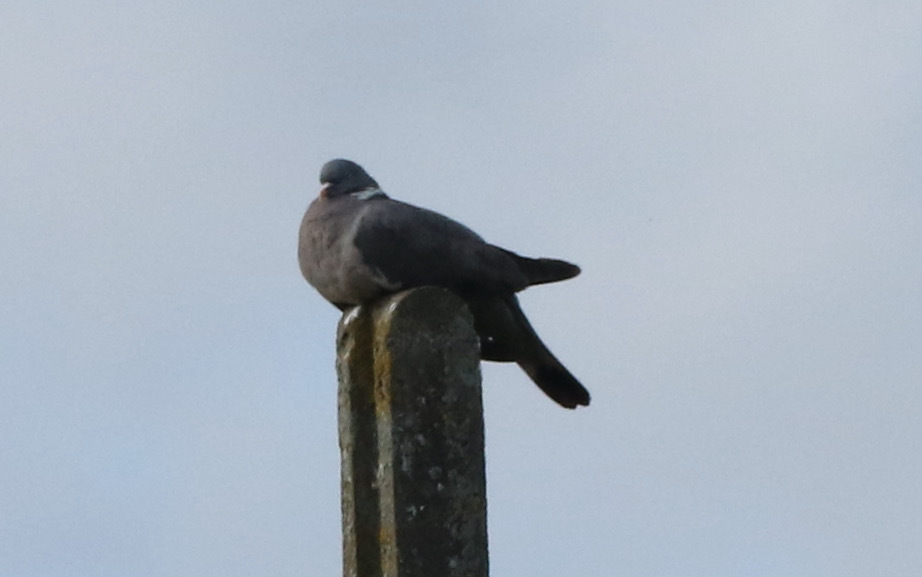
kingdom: Animalia
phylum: Chordata
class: Aves
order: Columbiformes
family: Columbidae
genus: Columba
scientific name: Columba palumbus
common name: Common wood pigeon
